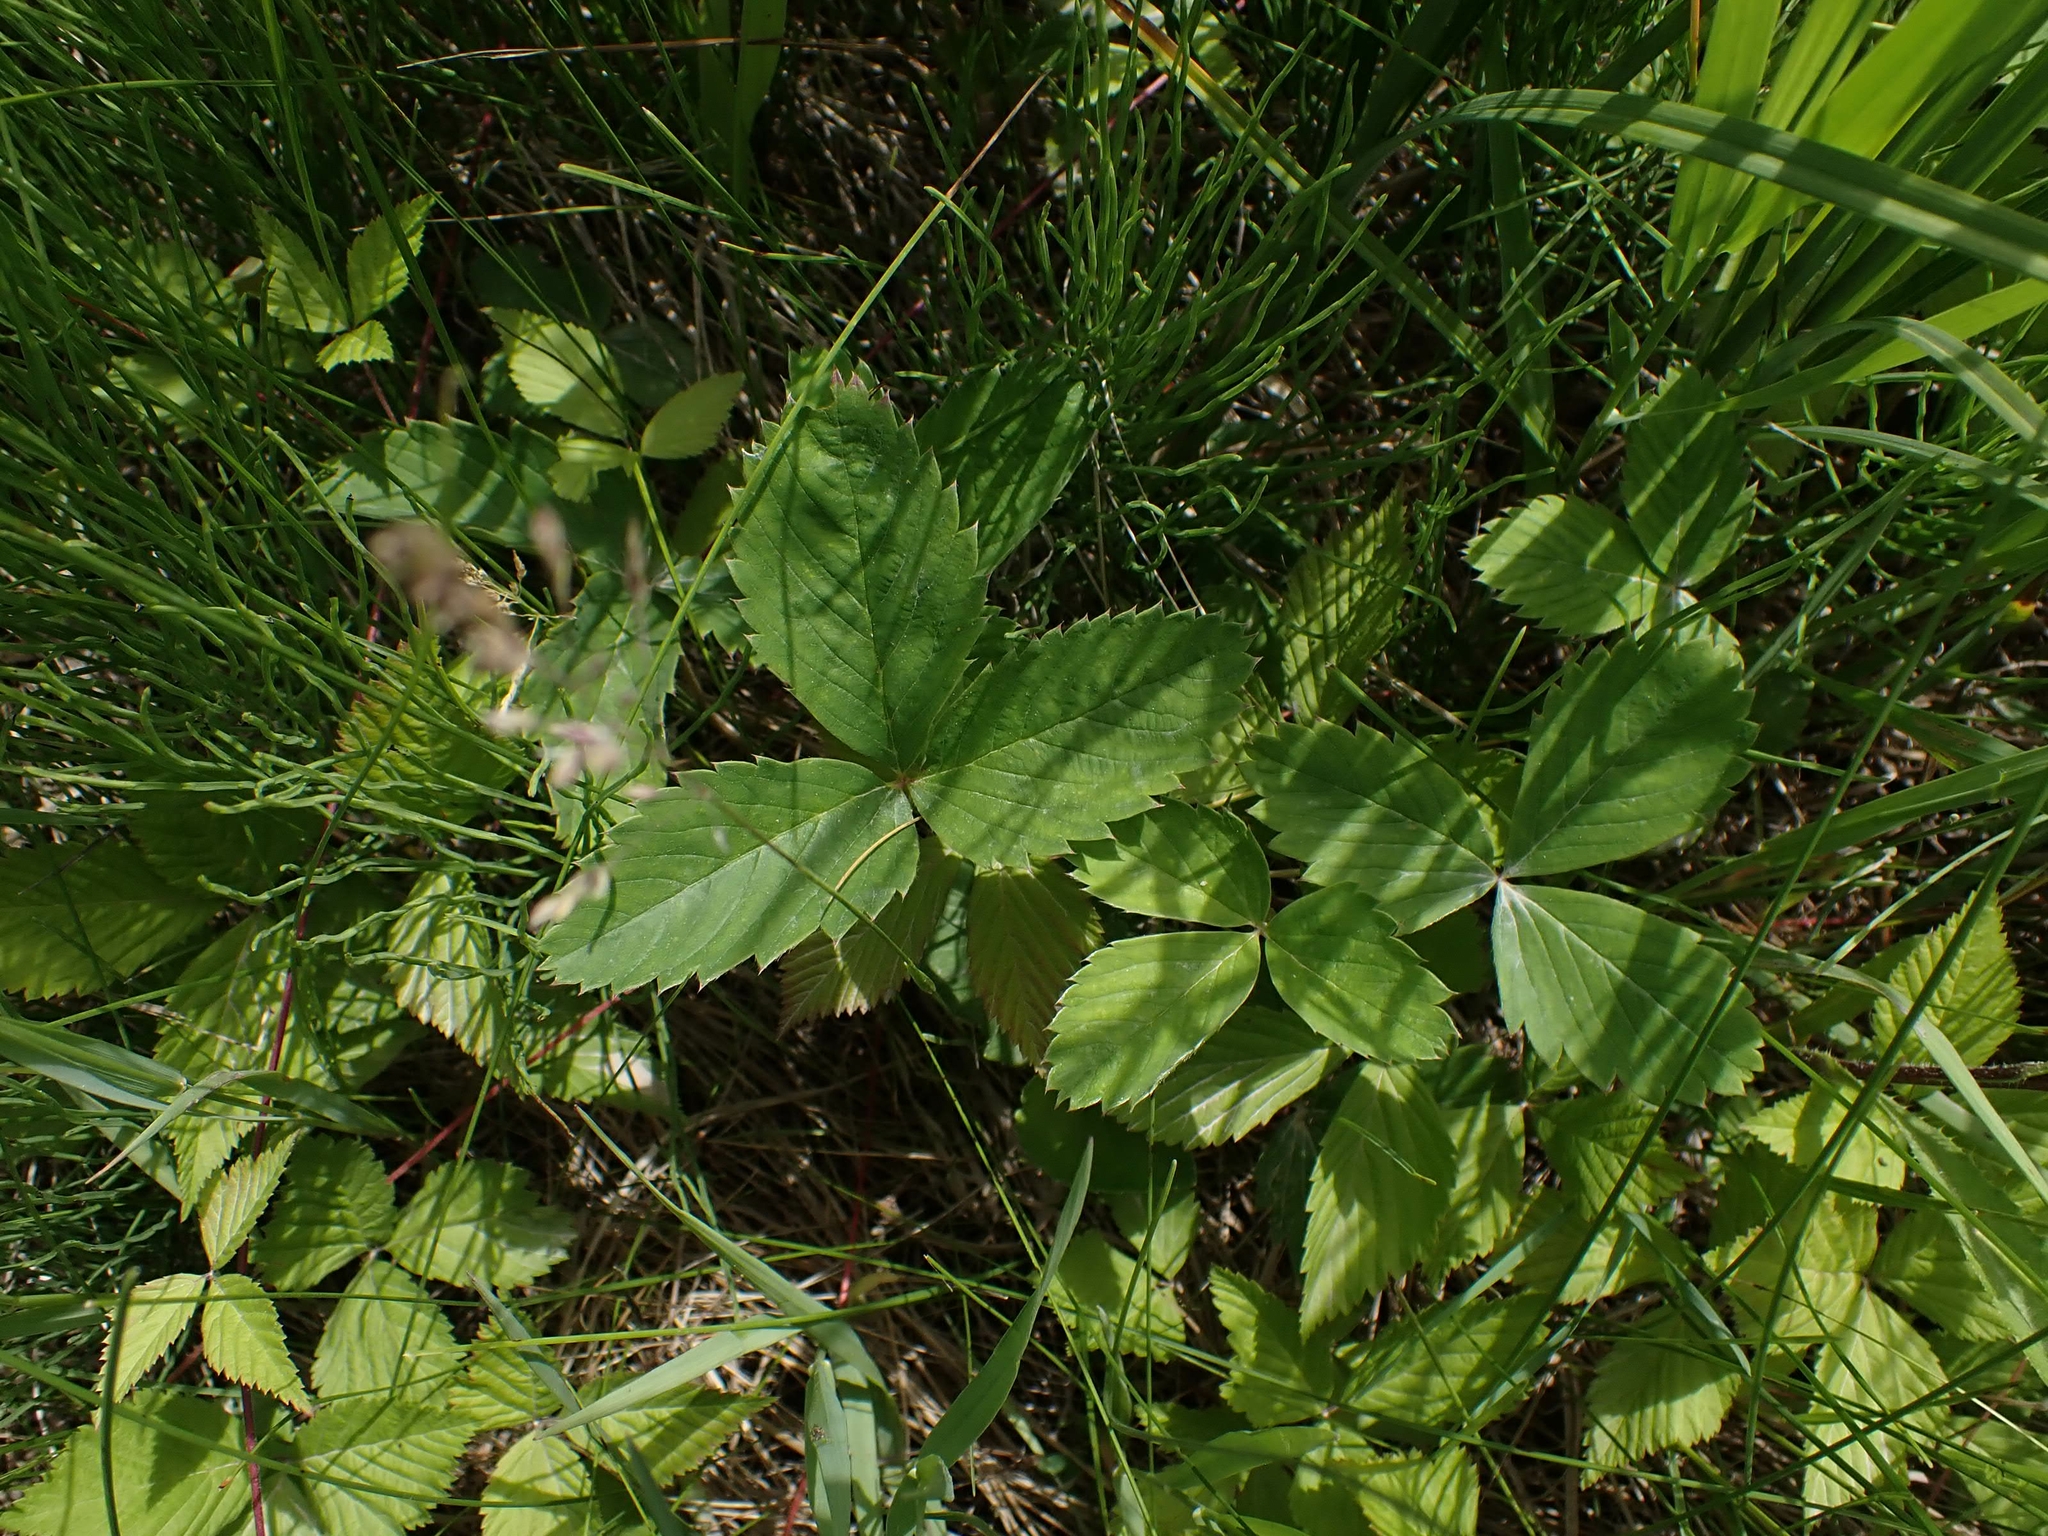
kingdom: Plantae
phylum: Tracheophyta
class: Magnoliopsida
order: Rosales
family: Rosaceae
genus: Fragaria
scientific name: Fragaria virginiana
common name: Thickleaved wild strawberry
